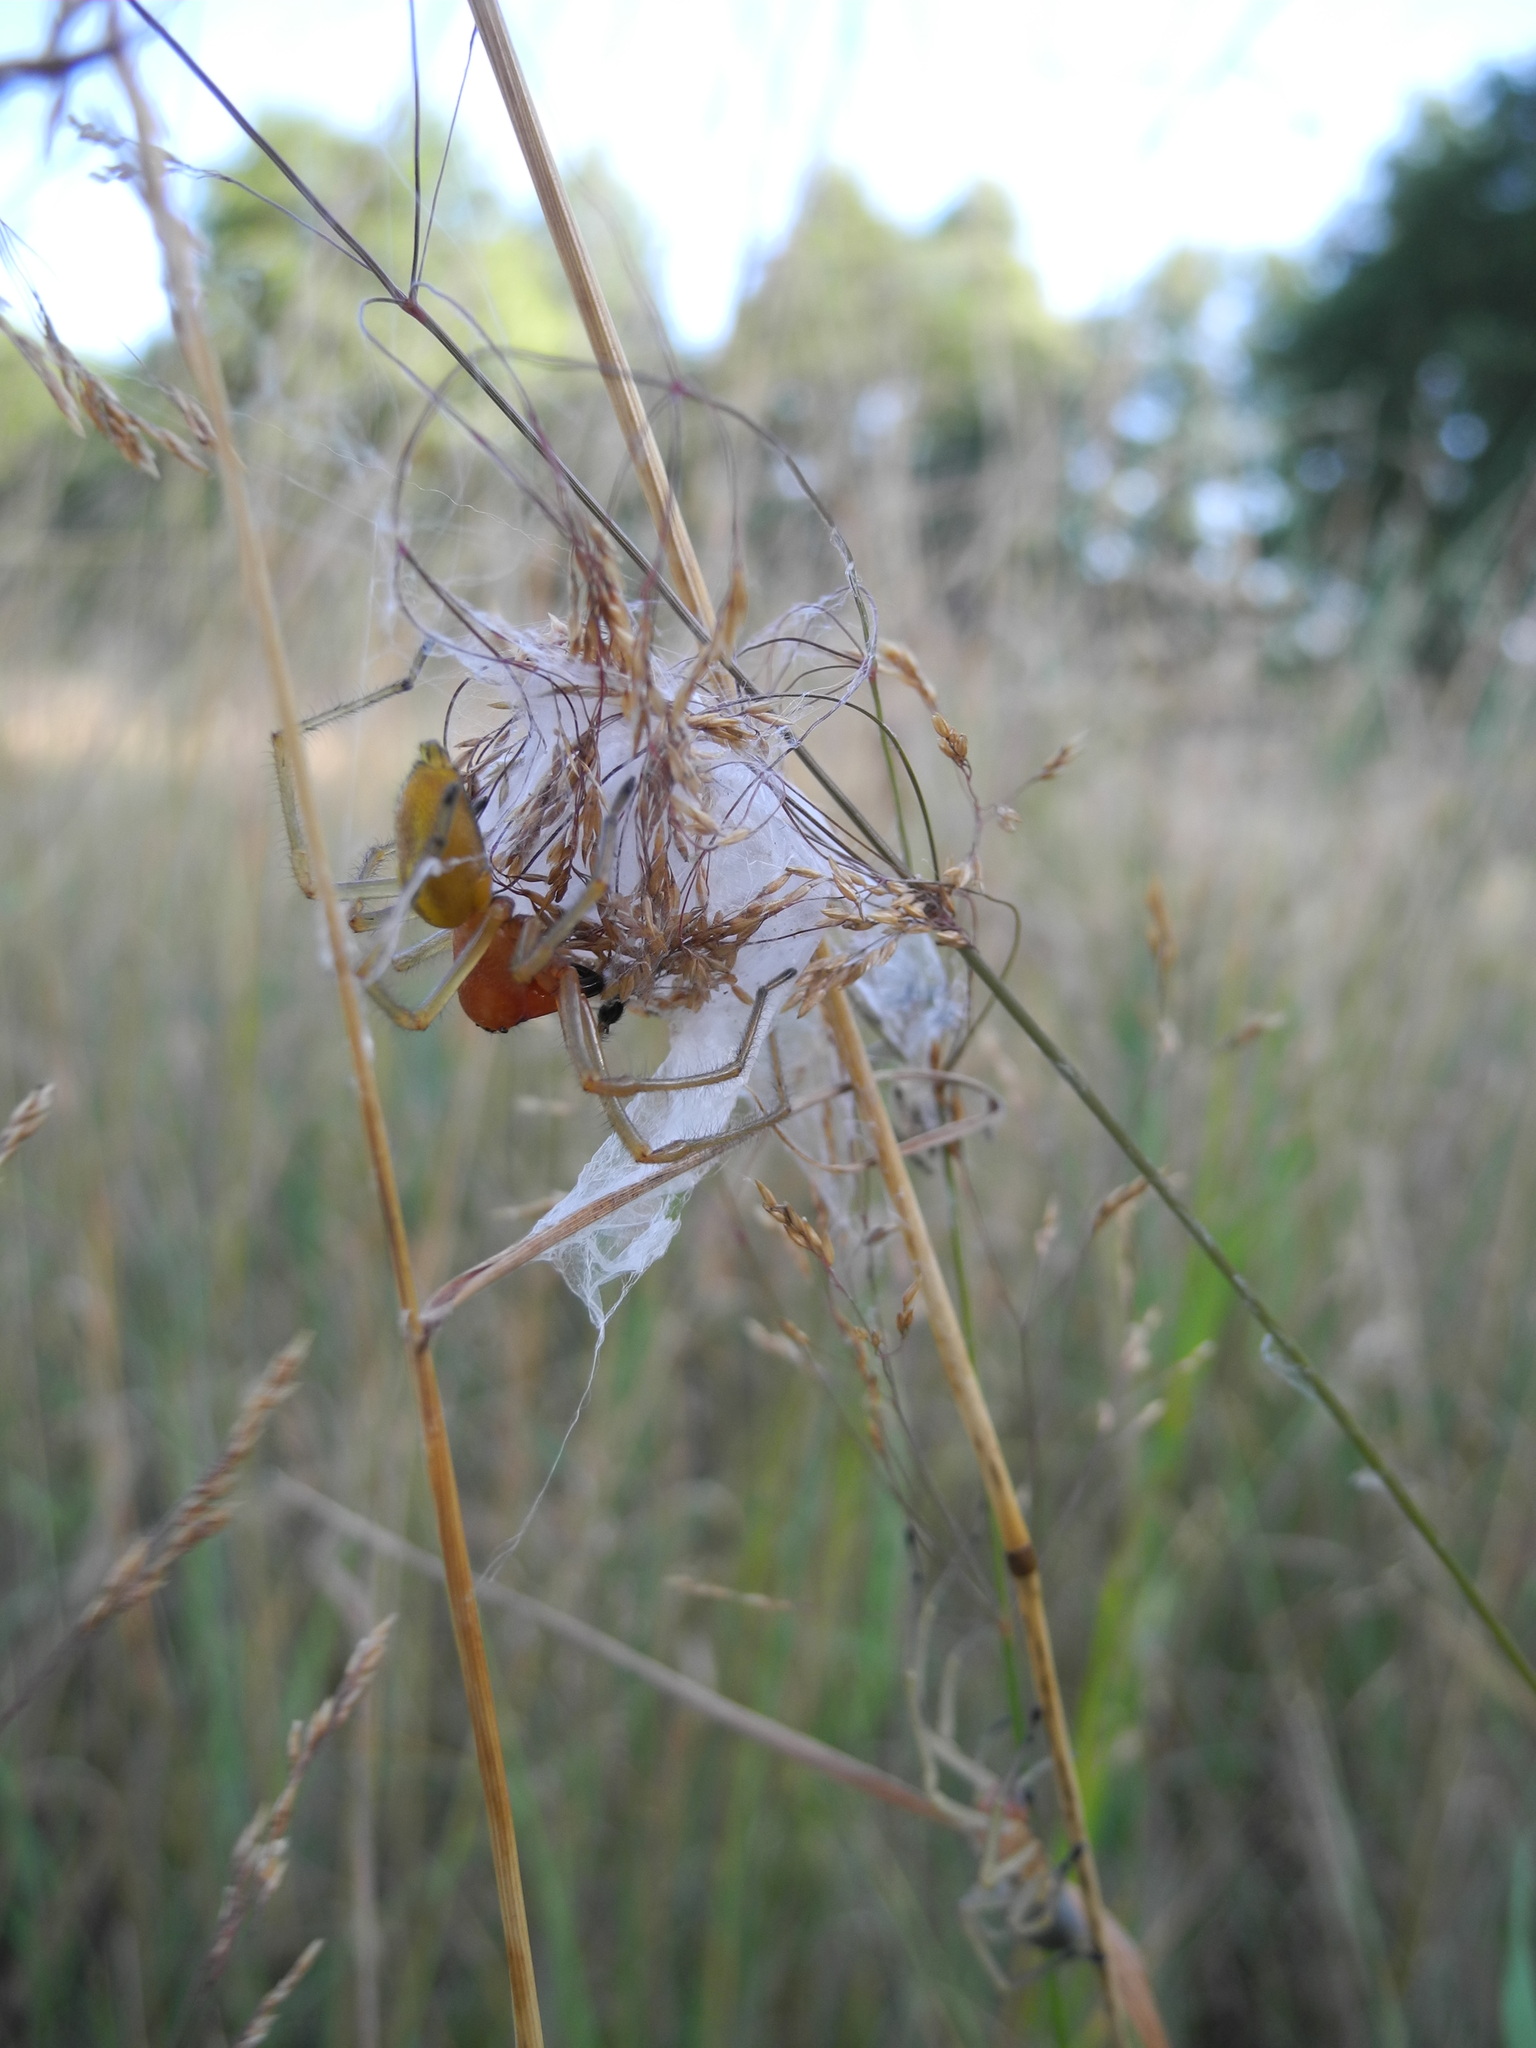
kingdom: Animalia
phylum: Arthropoda
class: Arachnida
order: Araneae
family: Cheiracanthiidae
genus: Cheiracanthium
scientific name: Cheiracanthium punctorium
